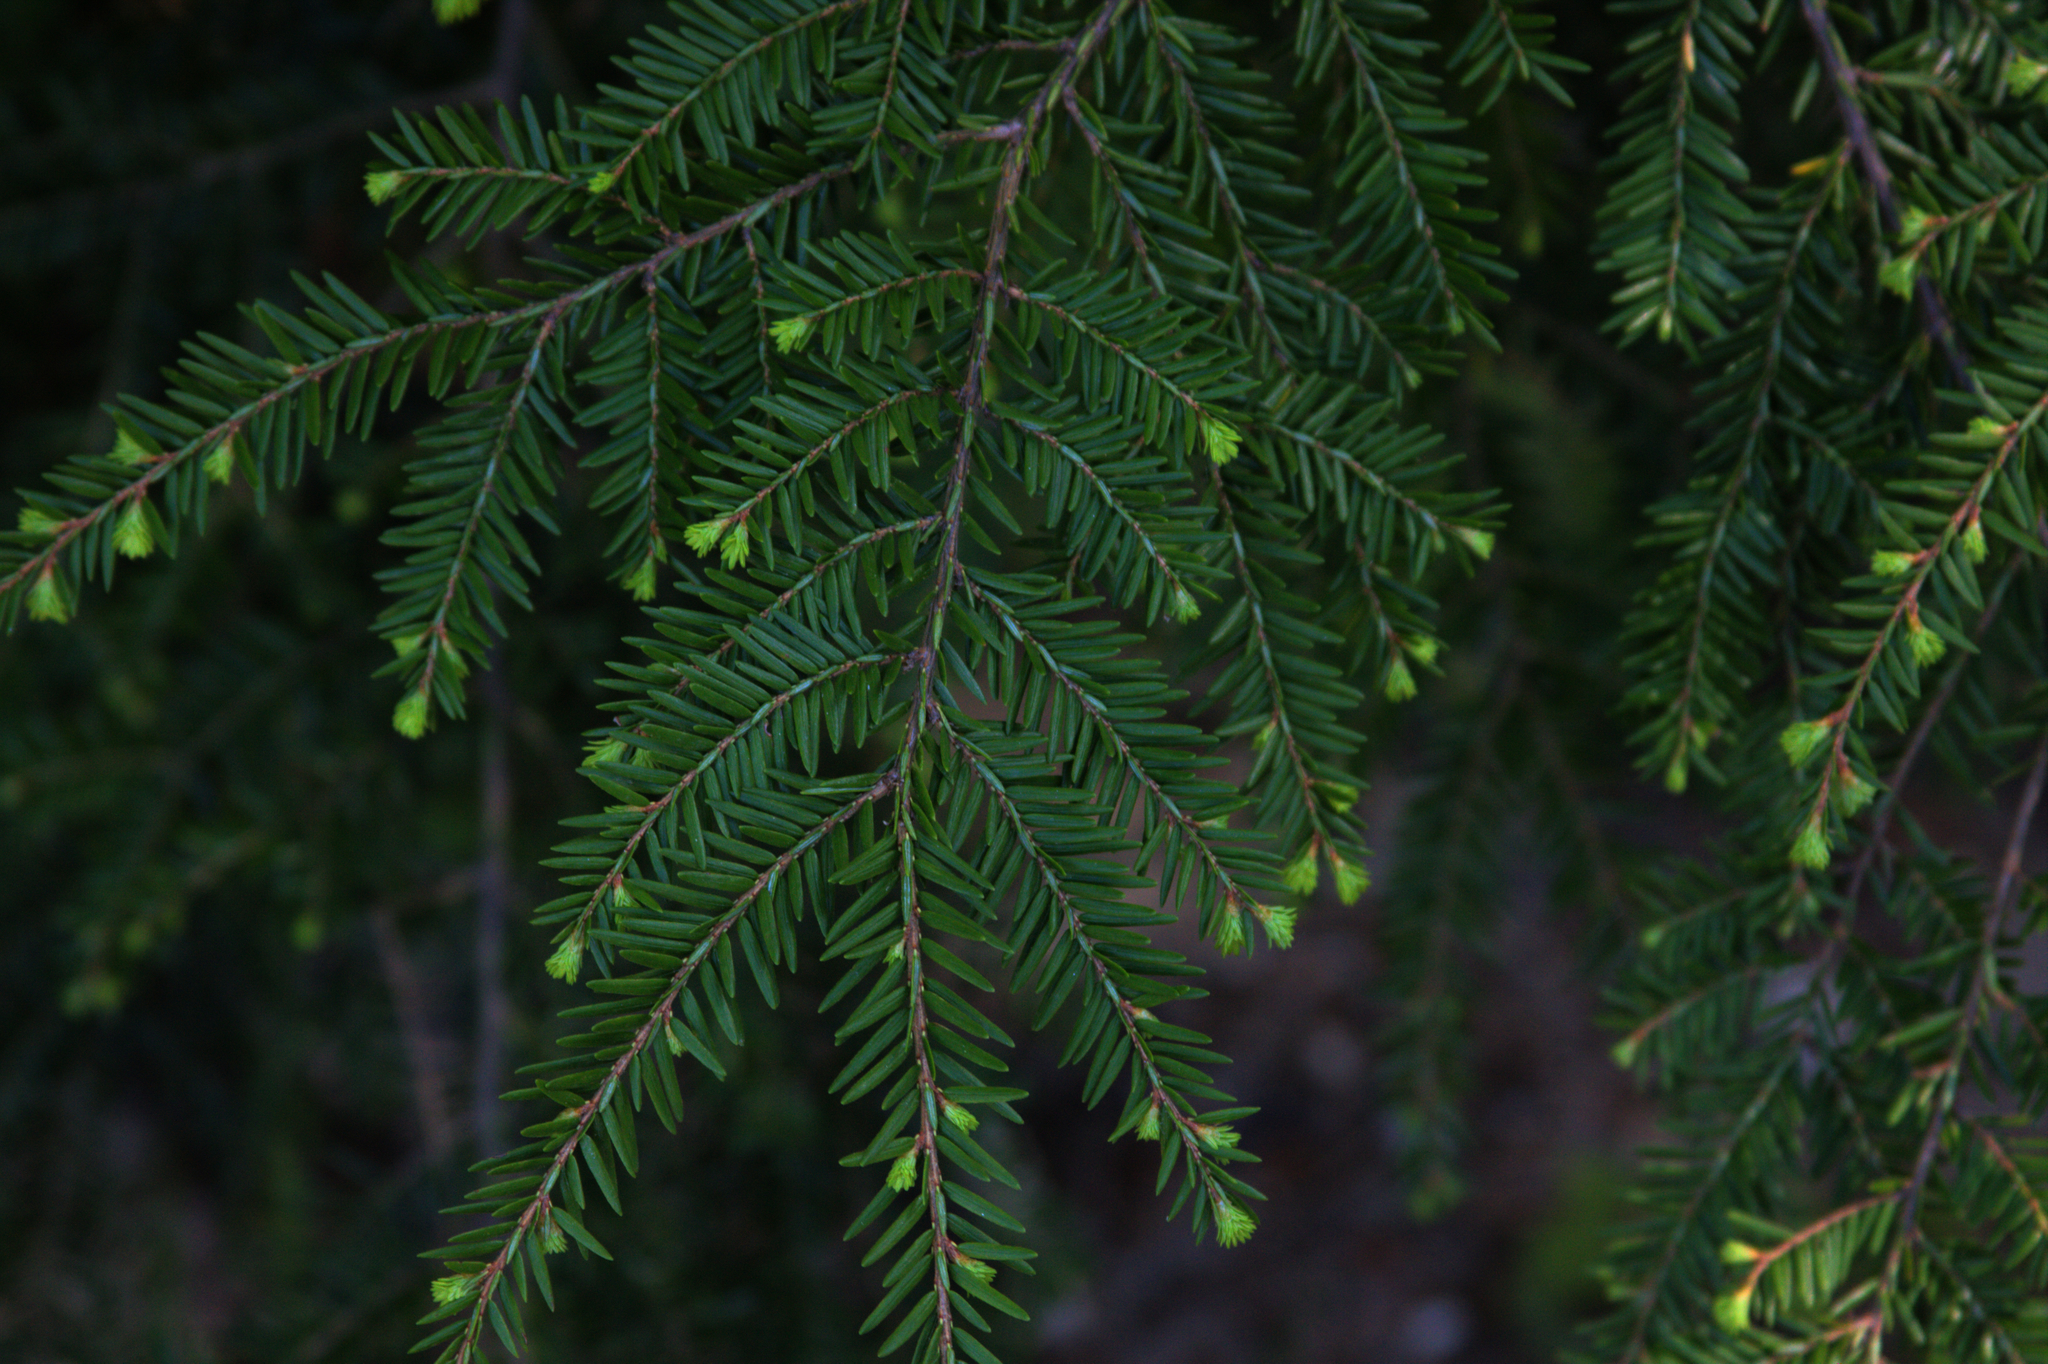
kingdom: Plantae
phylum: Tracheophyta
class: Pinopsida
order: Pinales
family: Pinaceae
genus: Tsuga
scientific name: Tsuga canadensis
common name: Eastern hemlock
